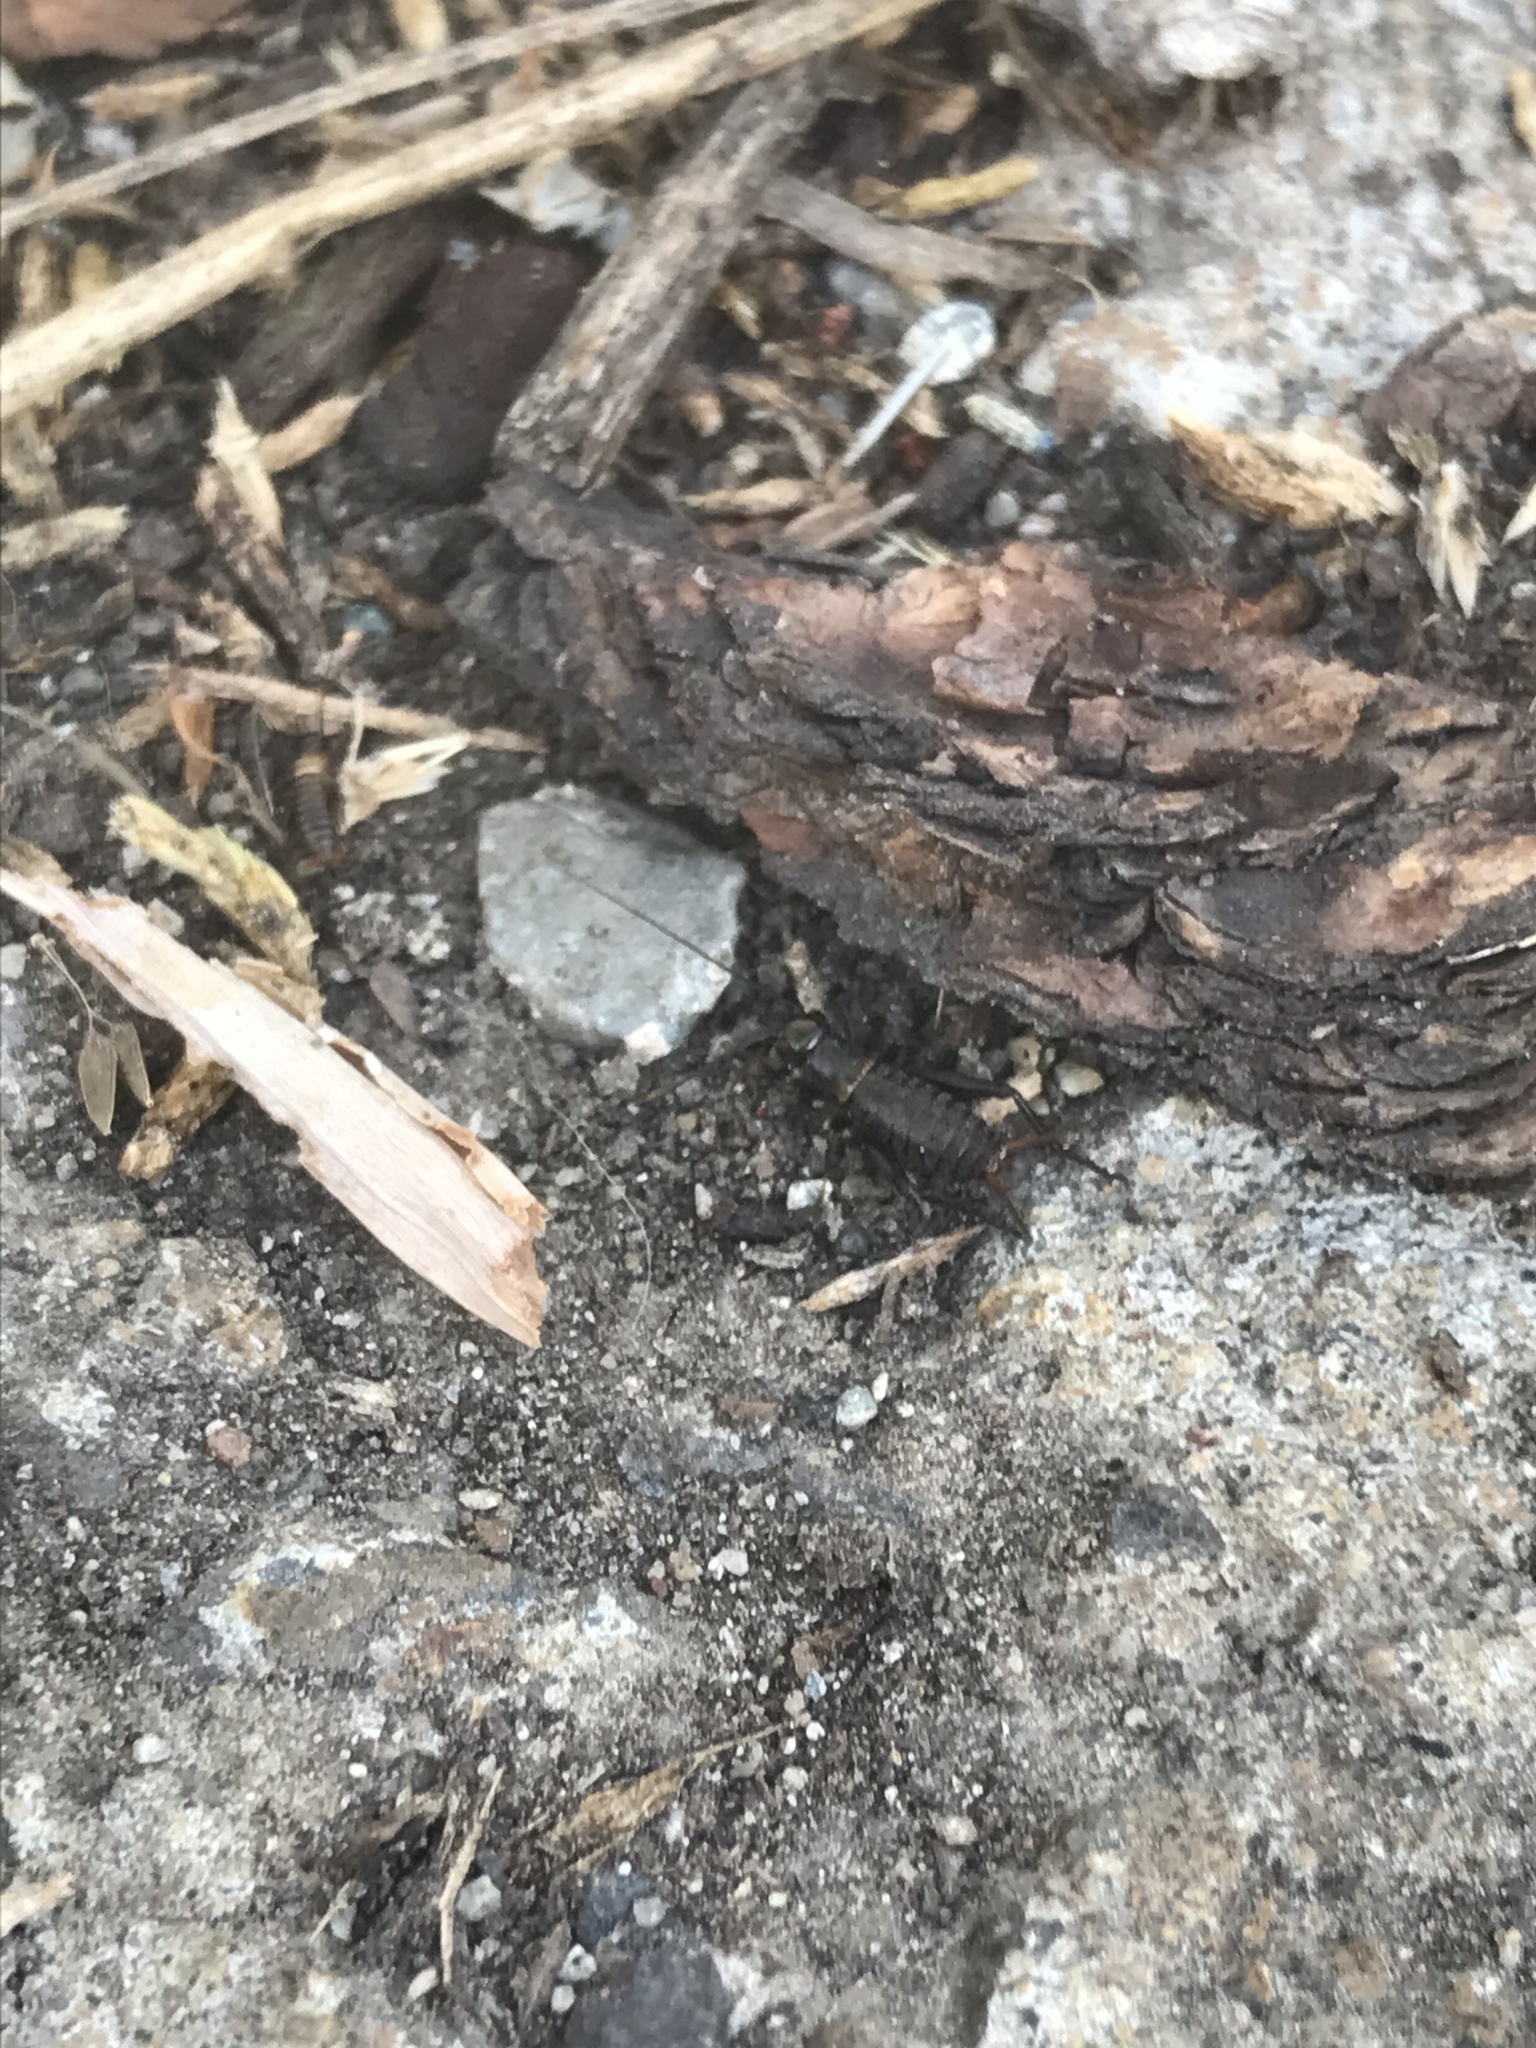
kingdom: Animalia
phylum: Arthropoda
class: Insecta
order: Orthoptera
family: Gryllidae
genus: Gryllus
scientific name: Gryllus veletis
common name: Spring field cricket
